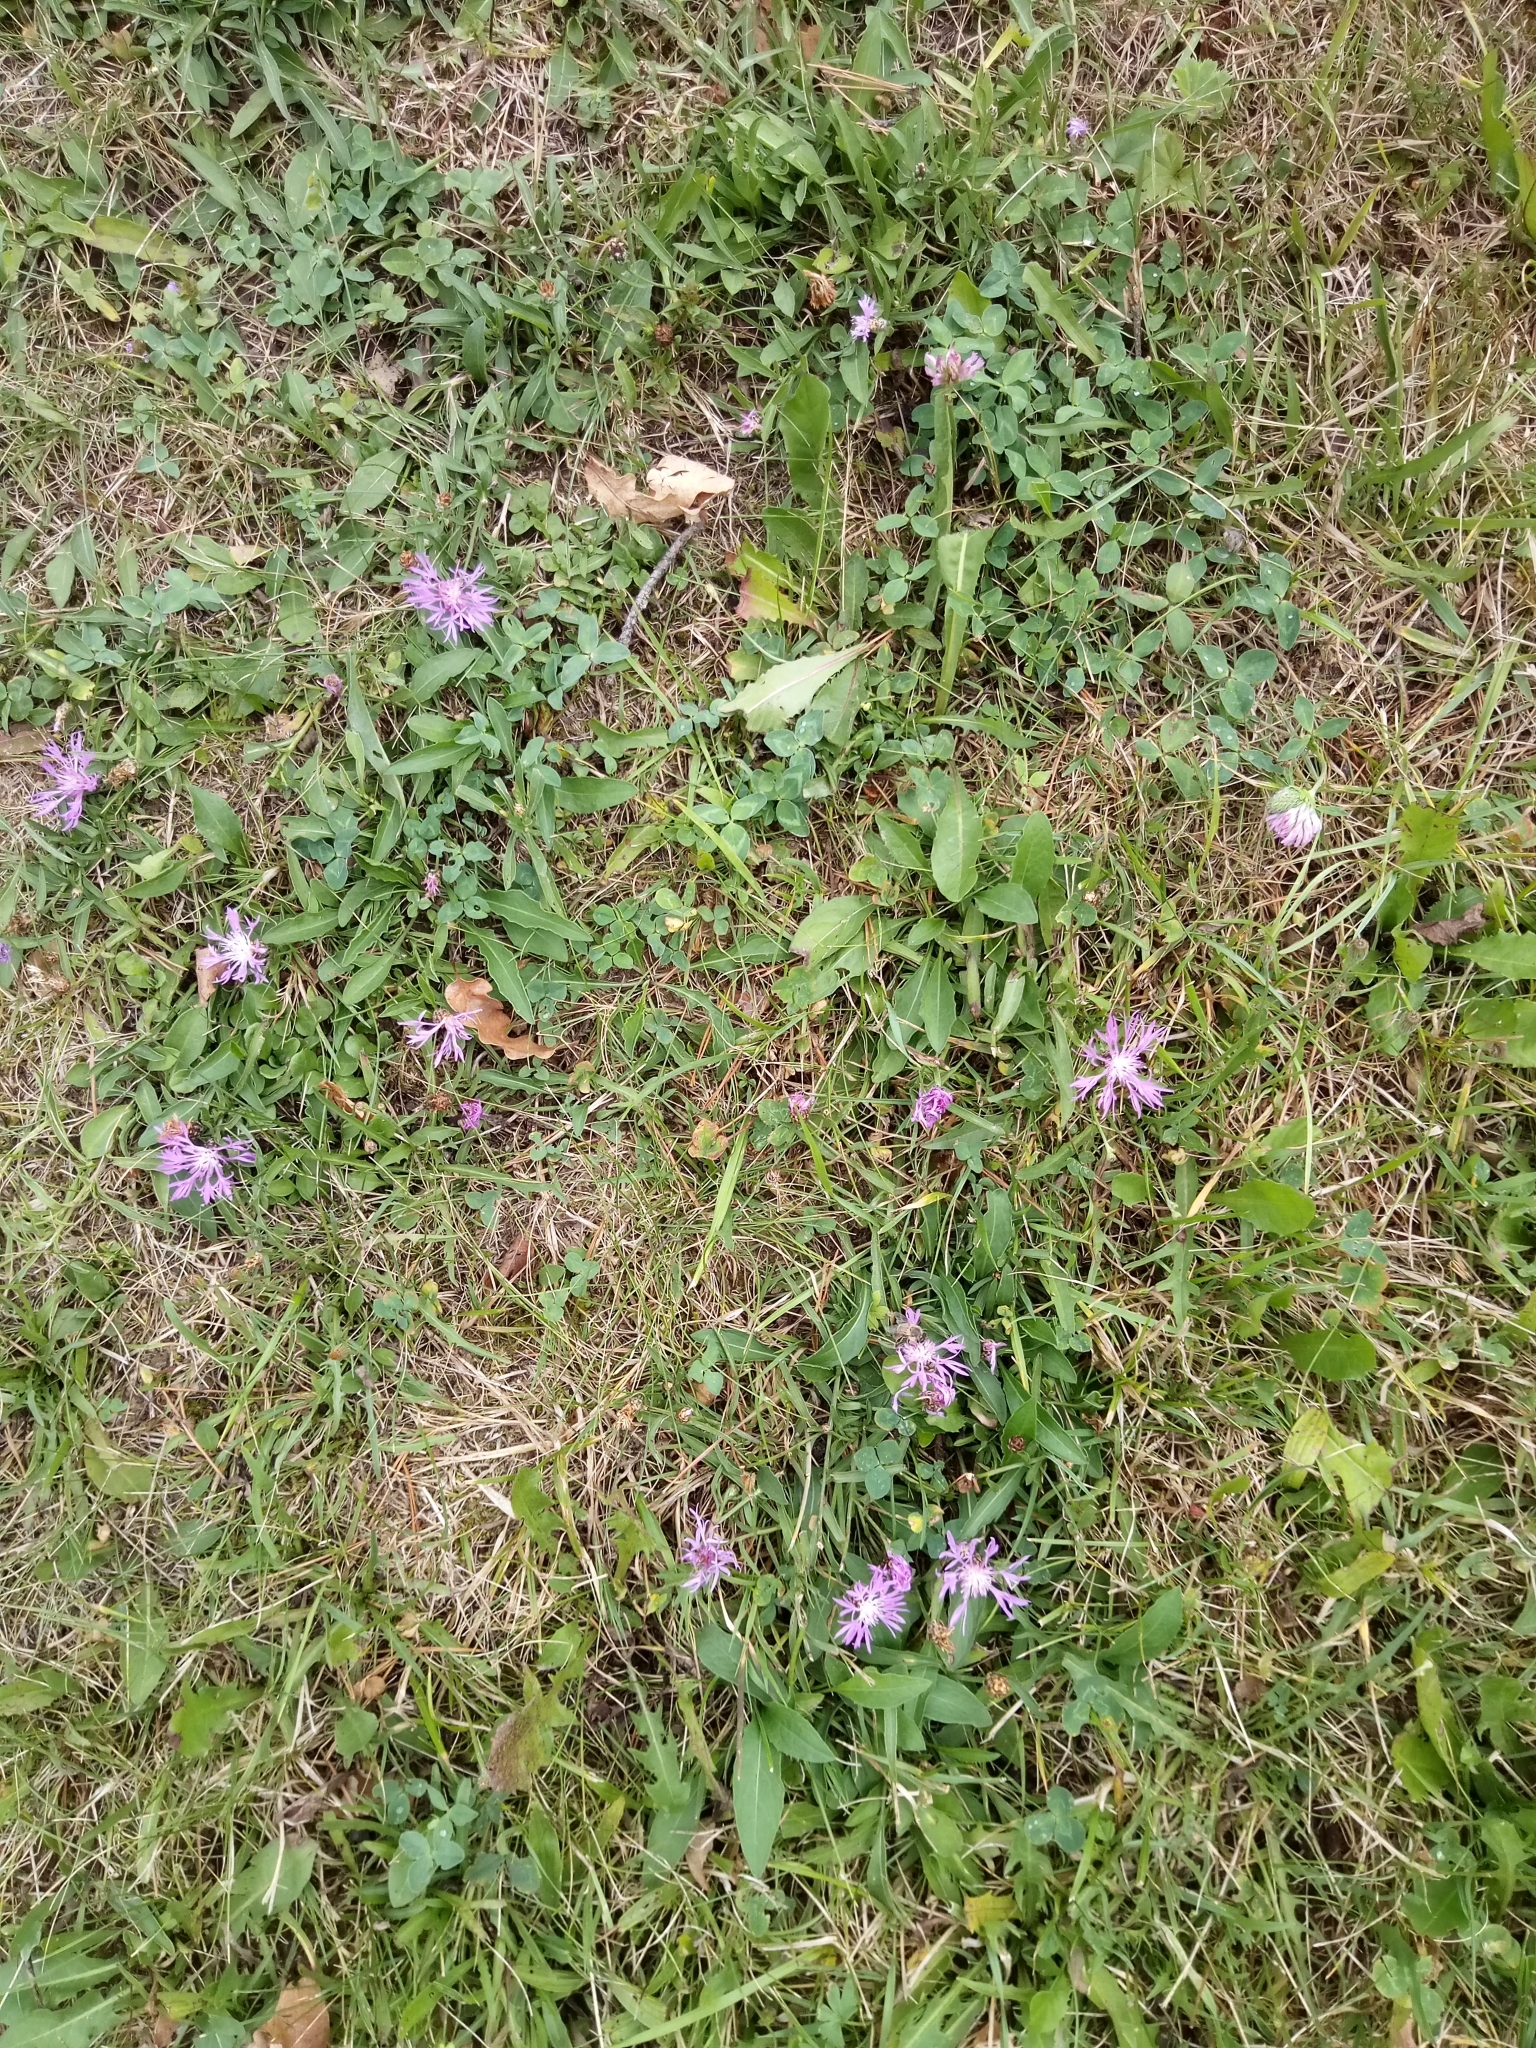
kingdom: Plantae
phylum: Tracheophyta
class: Magnoliopsida
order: Asterales
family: Asteraceae
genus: Centaurea
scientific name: Centaurea jacea
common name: Brown knapweed
